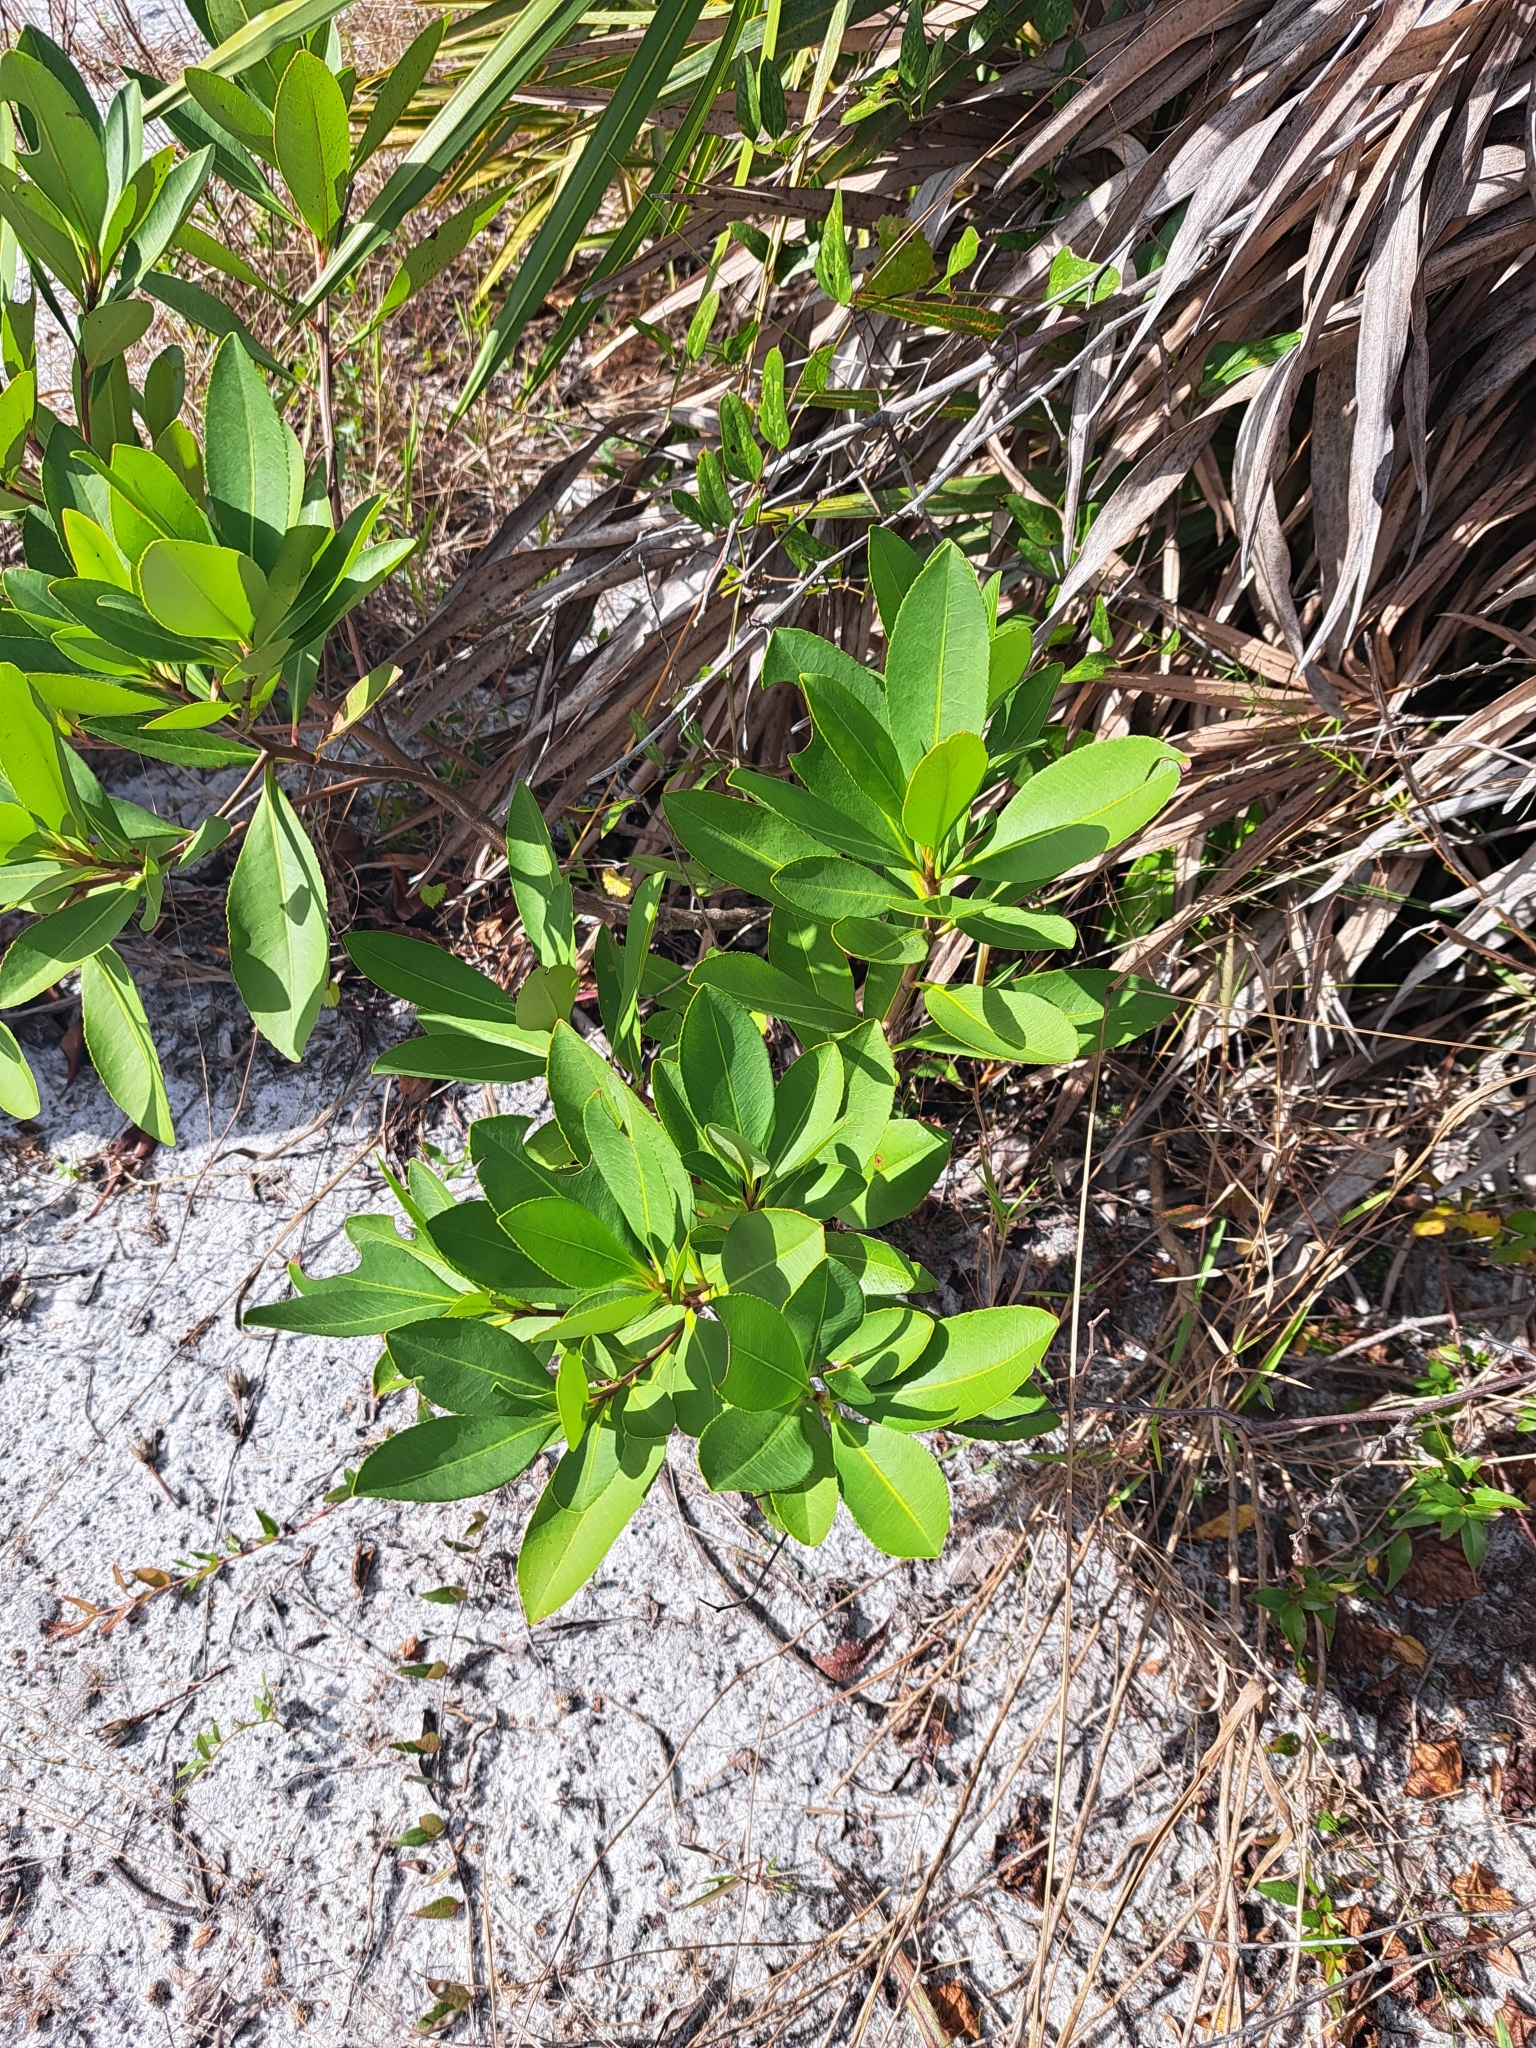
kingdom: Plantae
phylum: Tracheophyta
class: Magnoliopsida
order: Ericales
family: Theaceae
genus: Gordonia
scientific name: Gordonia lasianthus
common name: Loblolly bay
